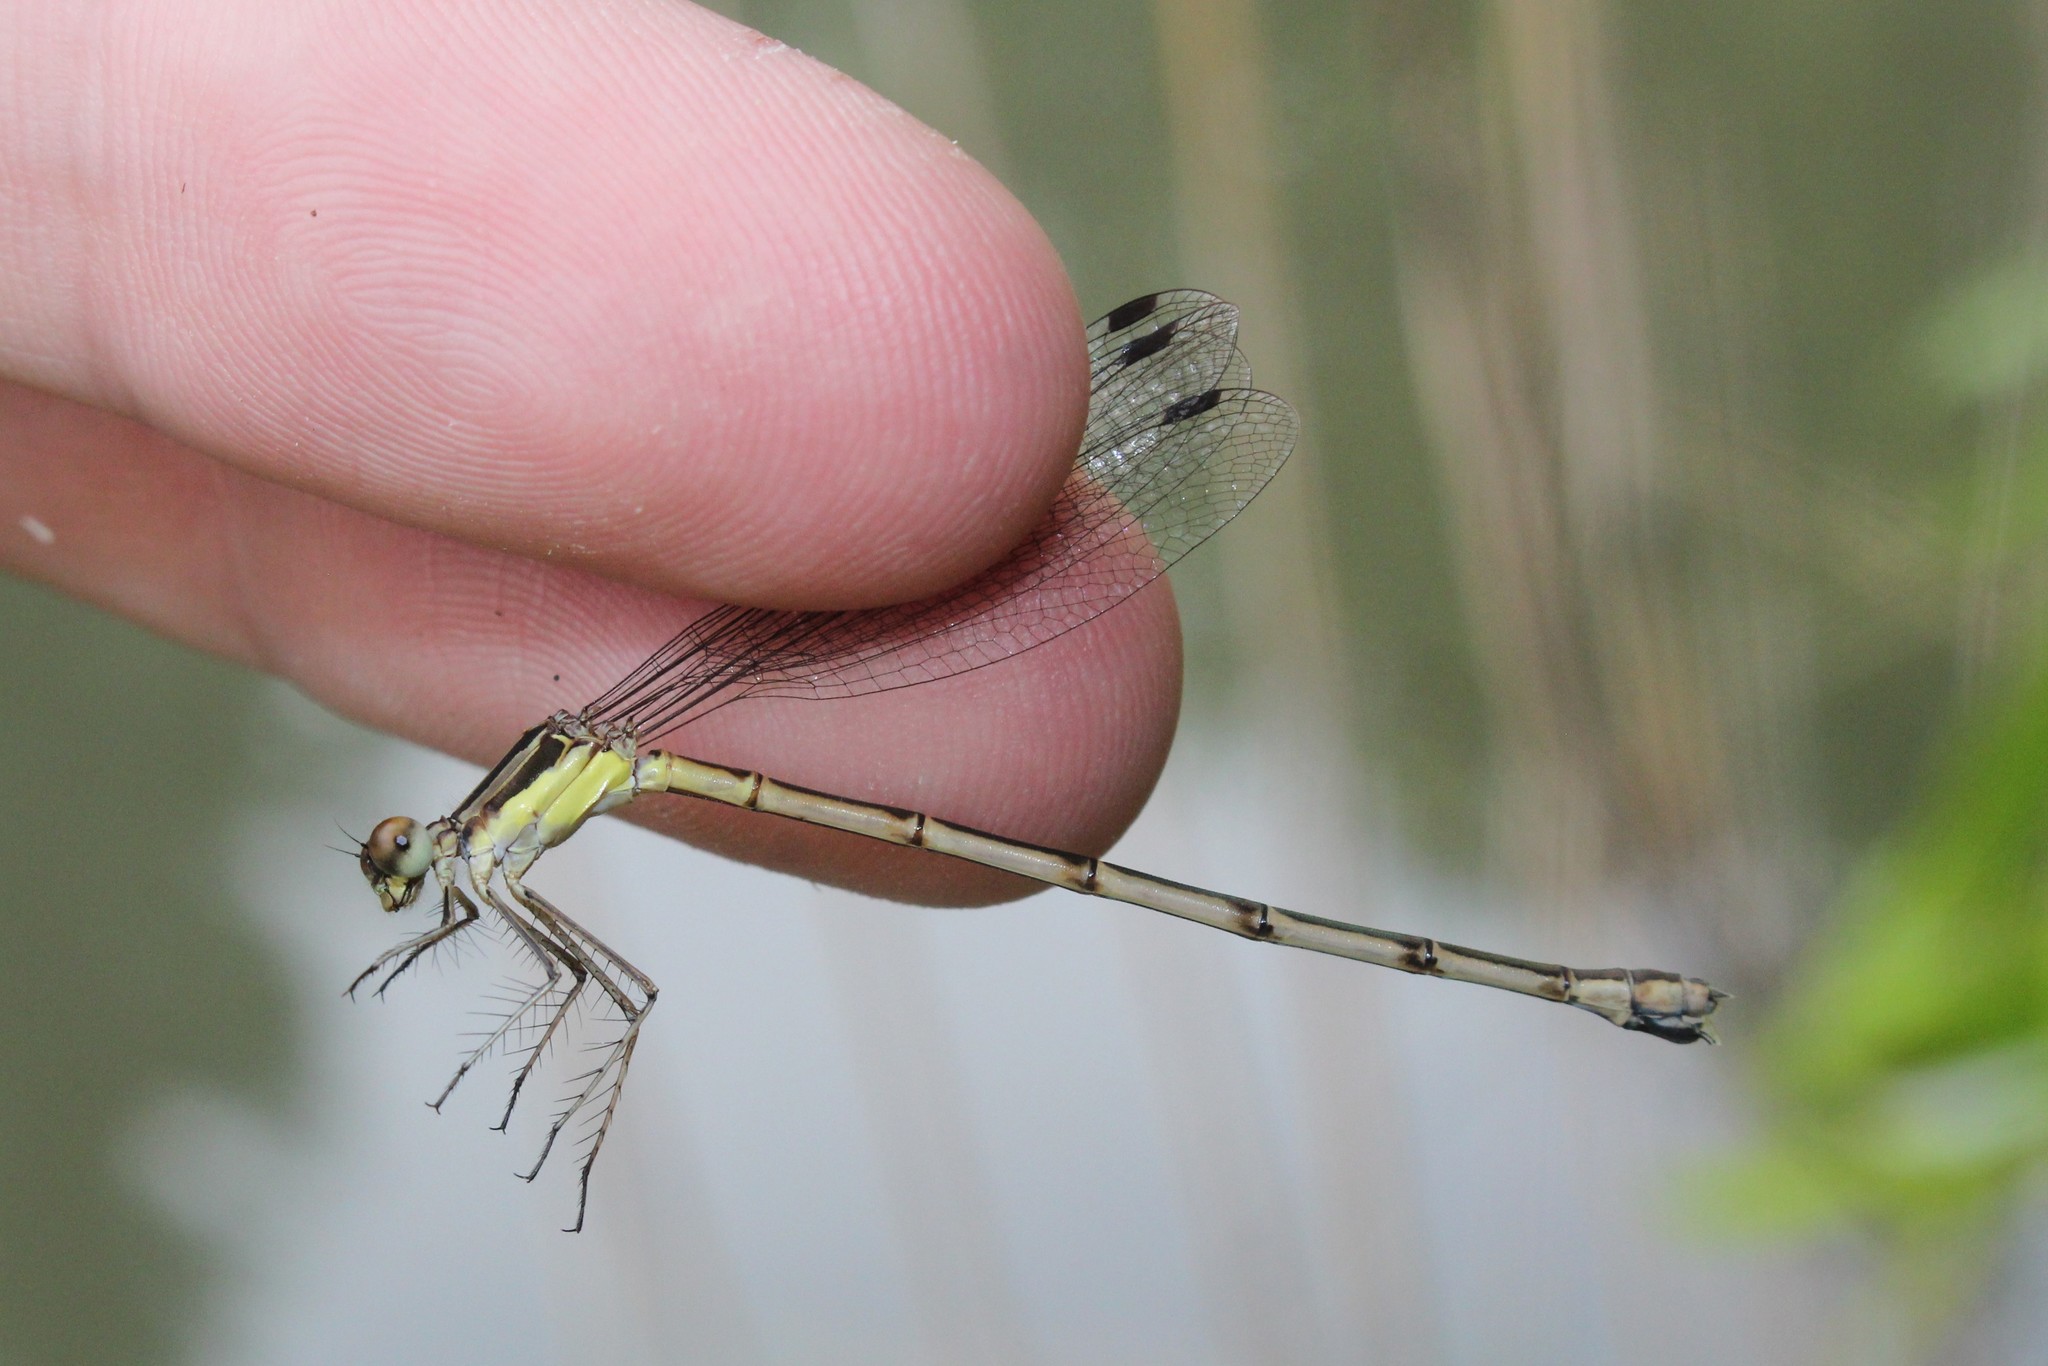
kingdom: Animalia
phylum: Arthropoda
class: Insecta
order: Odonata
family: Lestidae
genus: Lestes
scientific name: Lestes rectangularis
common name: Slender spreadwing
